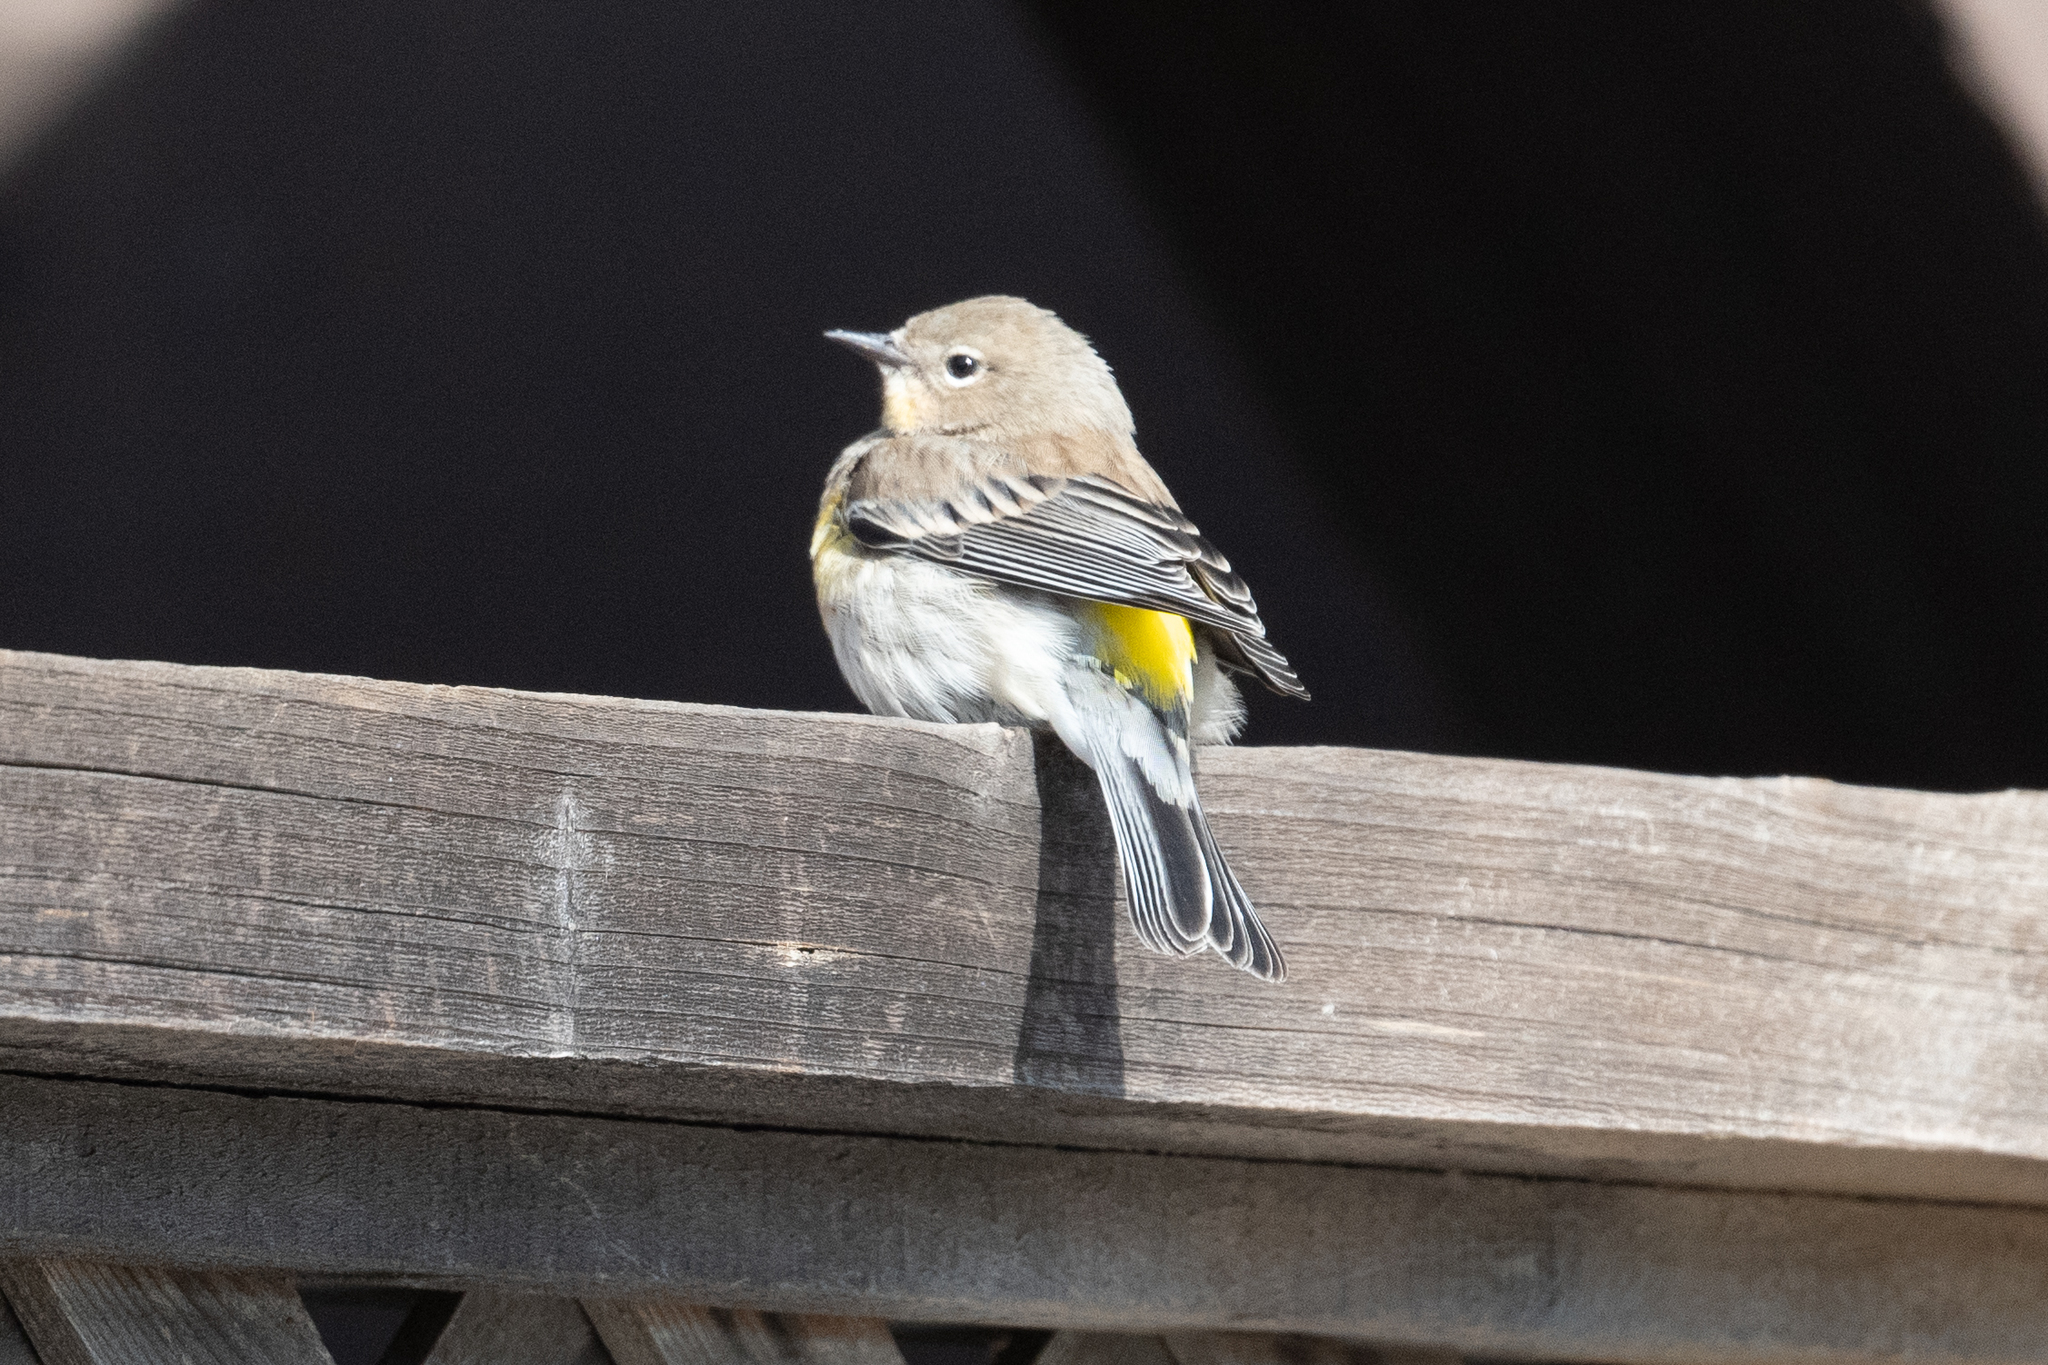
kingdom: Animalia
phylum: Chordata
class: Aves
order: Passeriformes
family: Parulidae
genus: Setophaga
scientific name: Setophaga coronata
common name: Myrtle warbler
